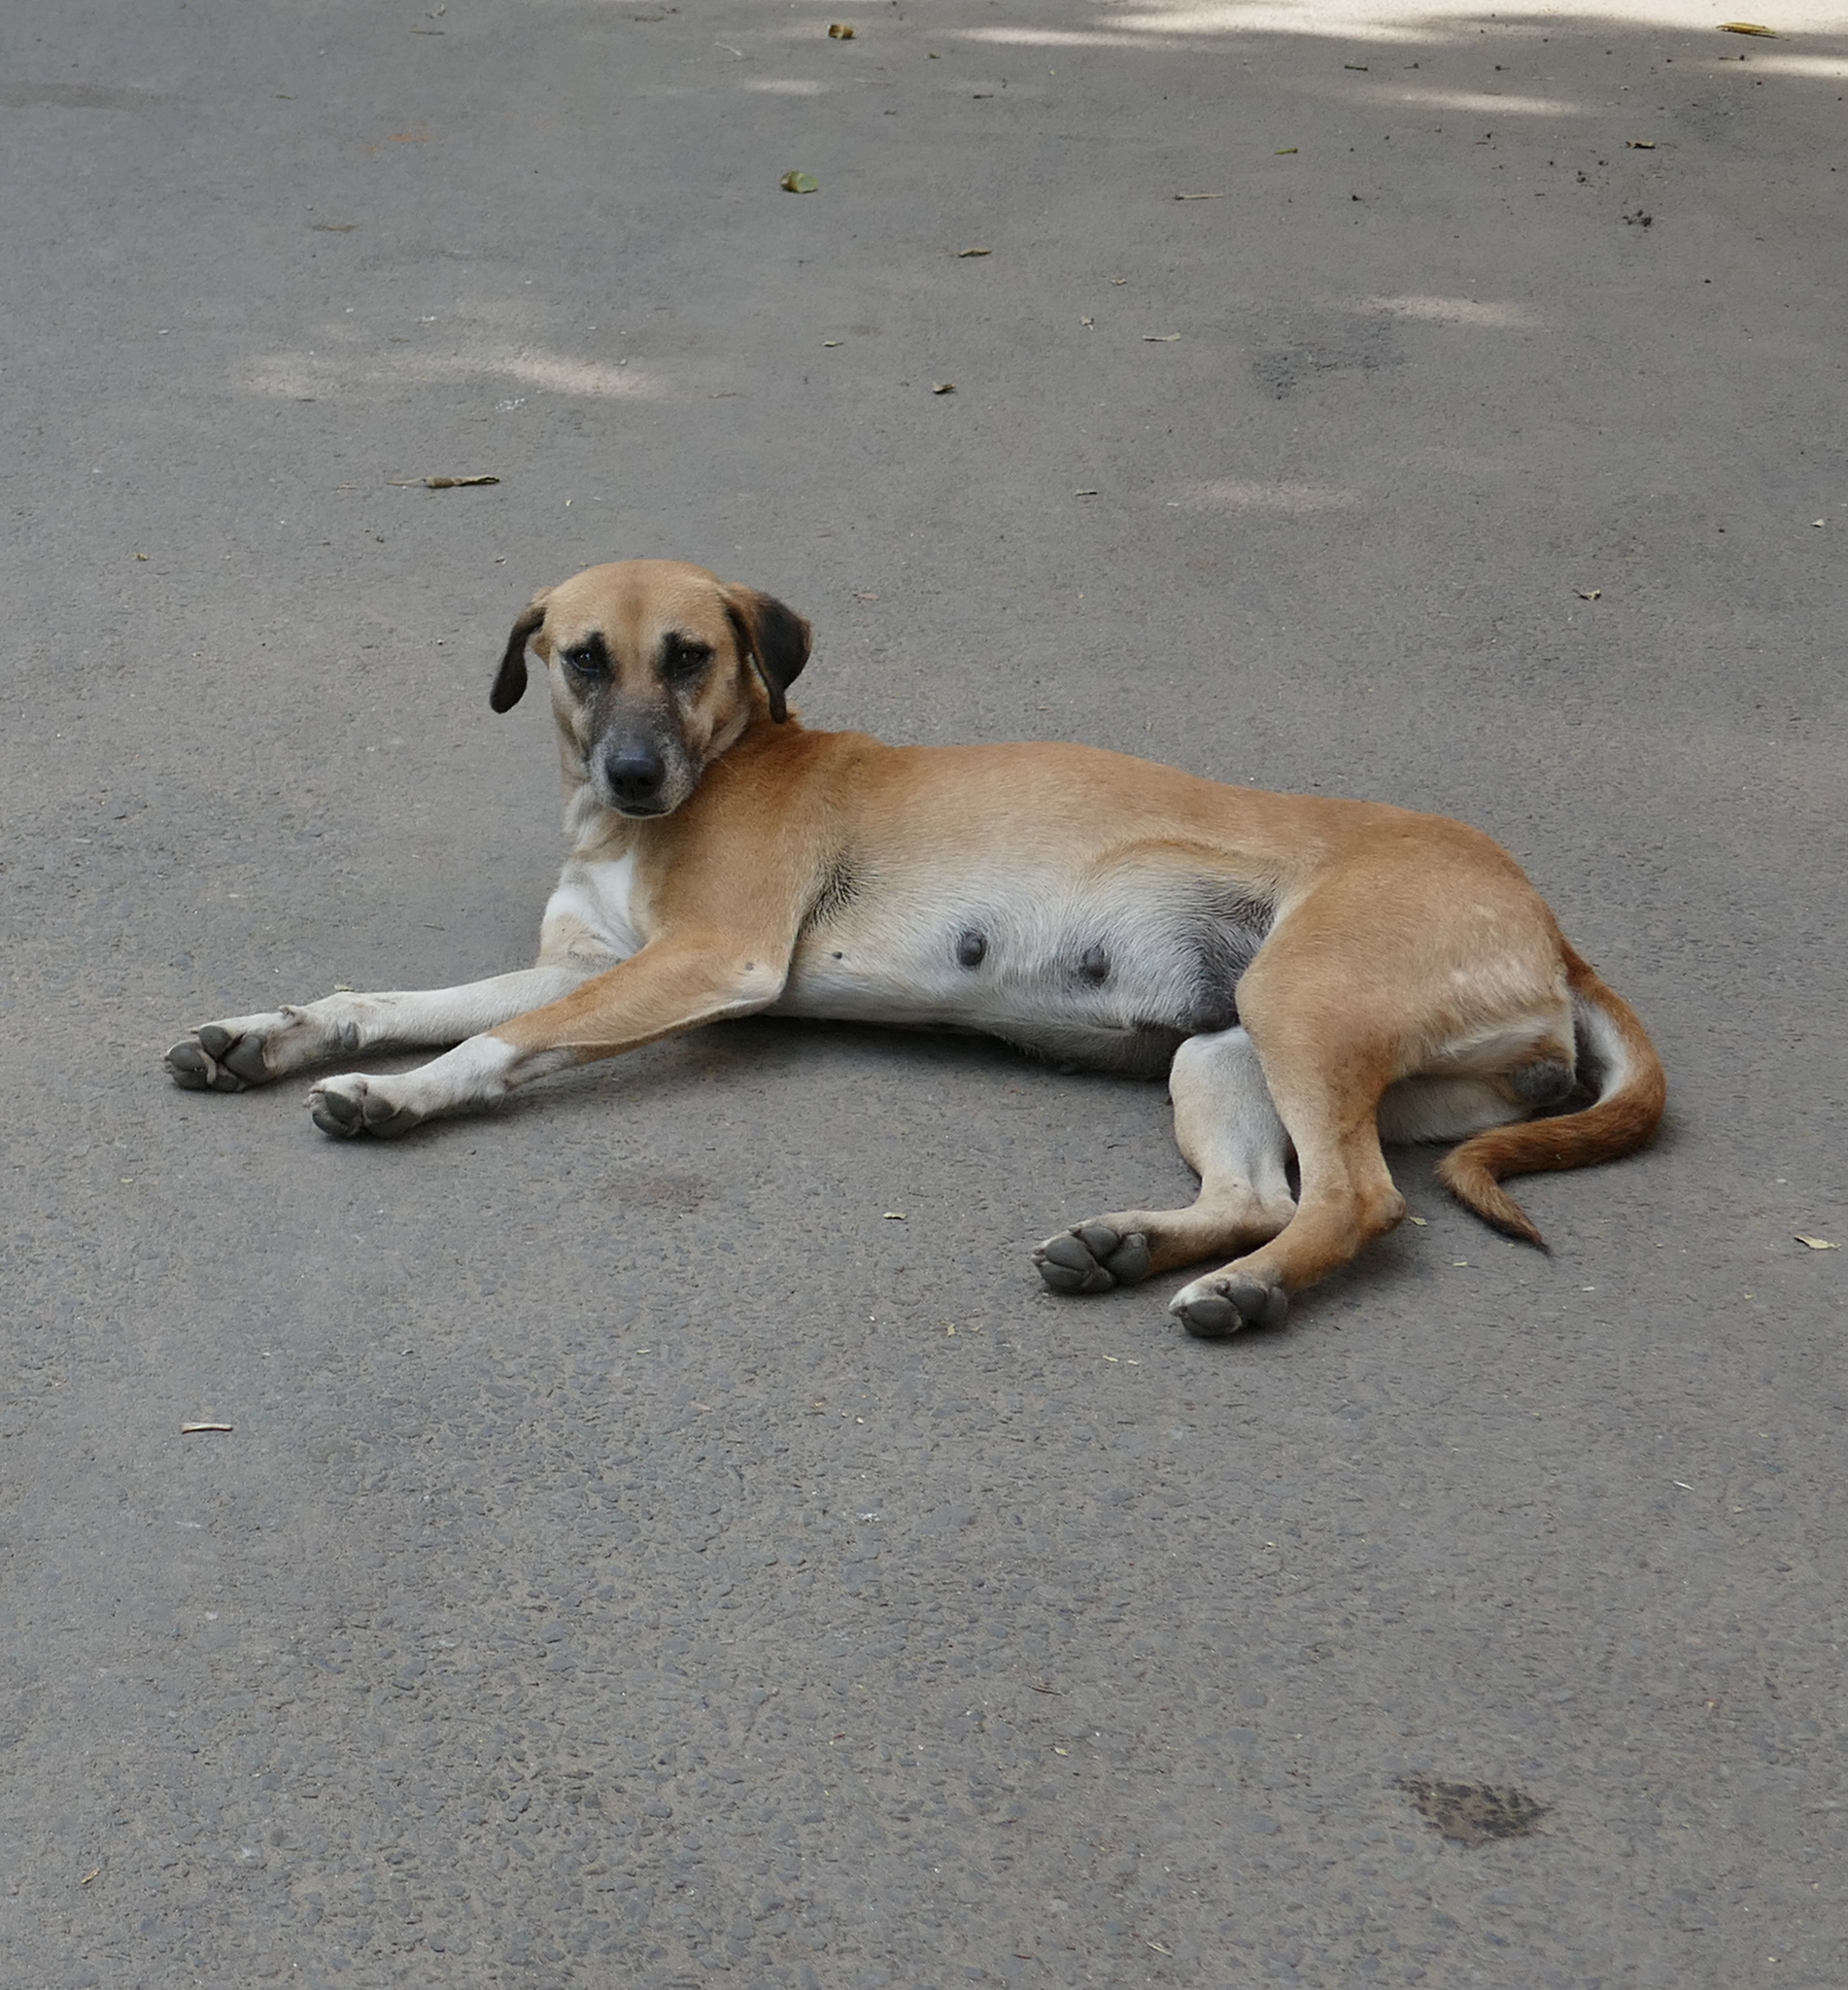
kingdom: Animalia
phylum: Chordata
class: Mammalia
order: Carnivora
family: Canidae
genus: Canis
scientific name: Canis lupus
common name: Gray wolf
